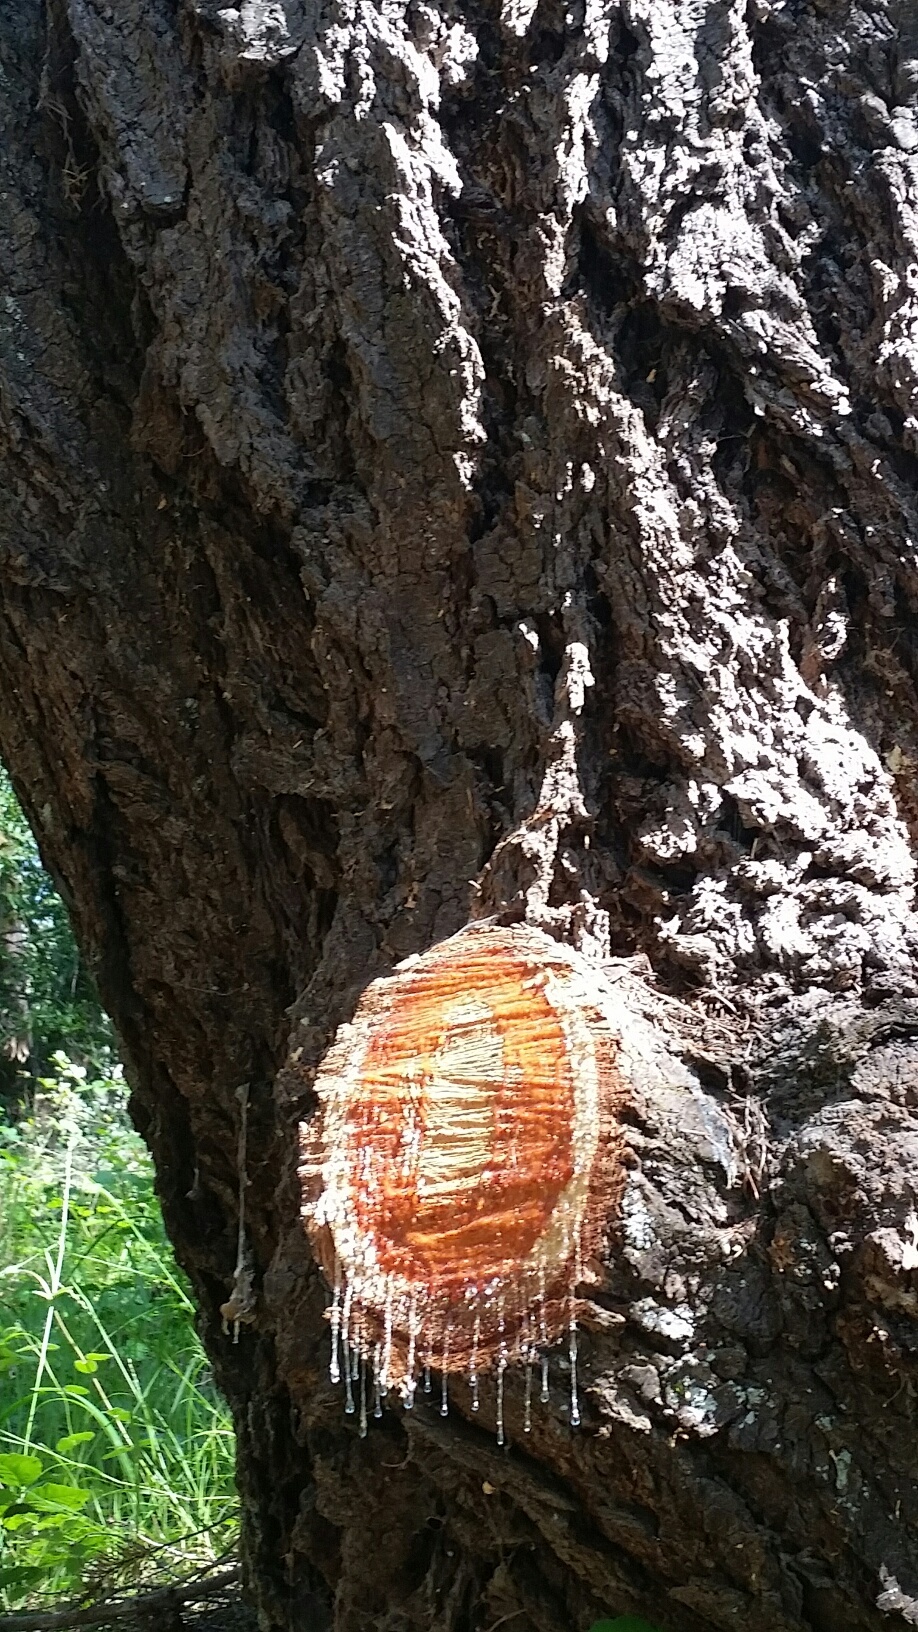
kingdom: Plantae
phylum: Tracheophyta
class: Pinopsida
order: Pinales
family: Pinaceae
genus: Pseudotsuga
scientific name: Pseudotsuga menziesii
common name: Douglas fir
